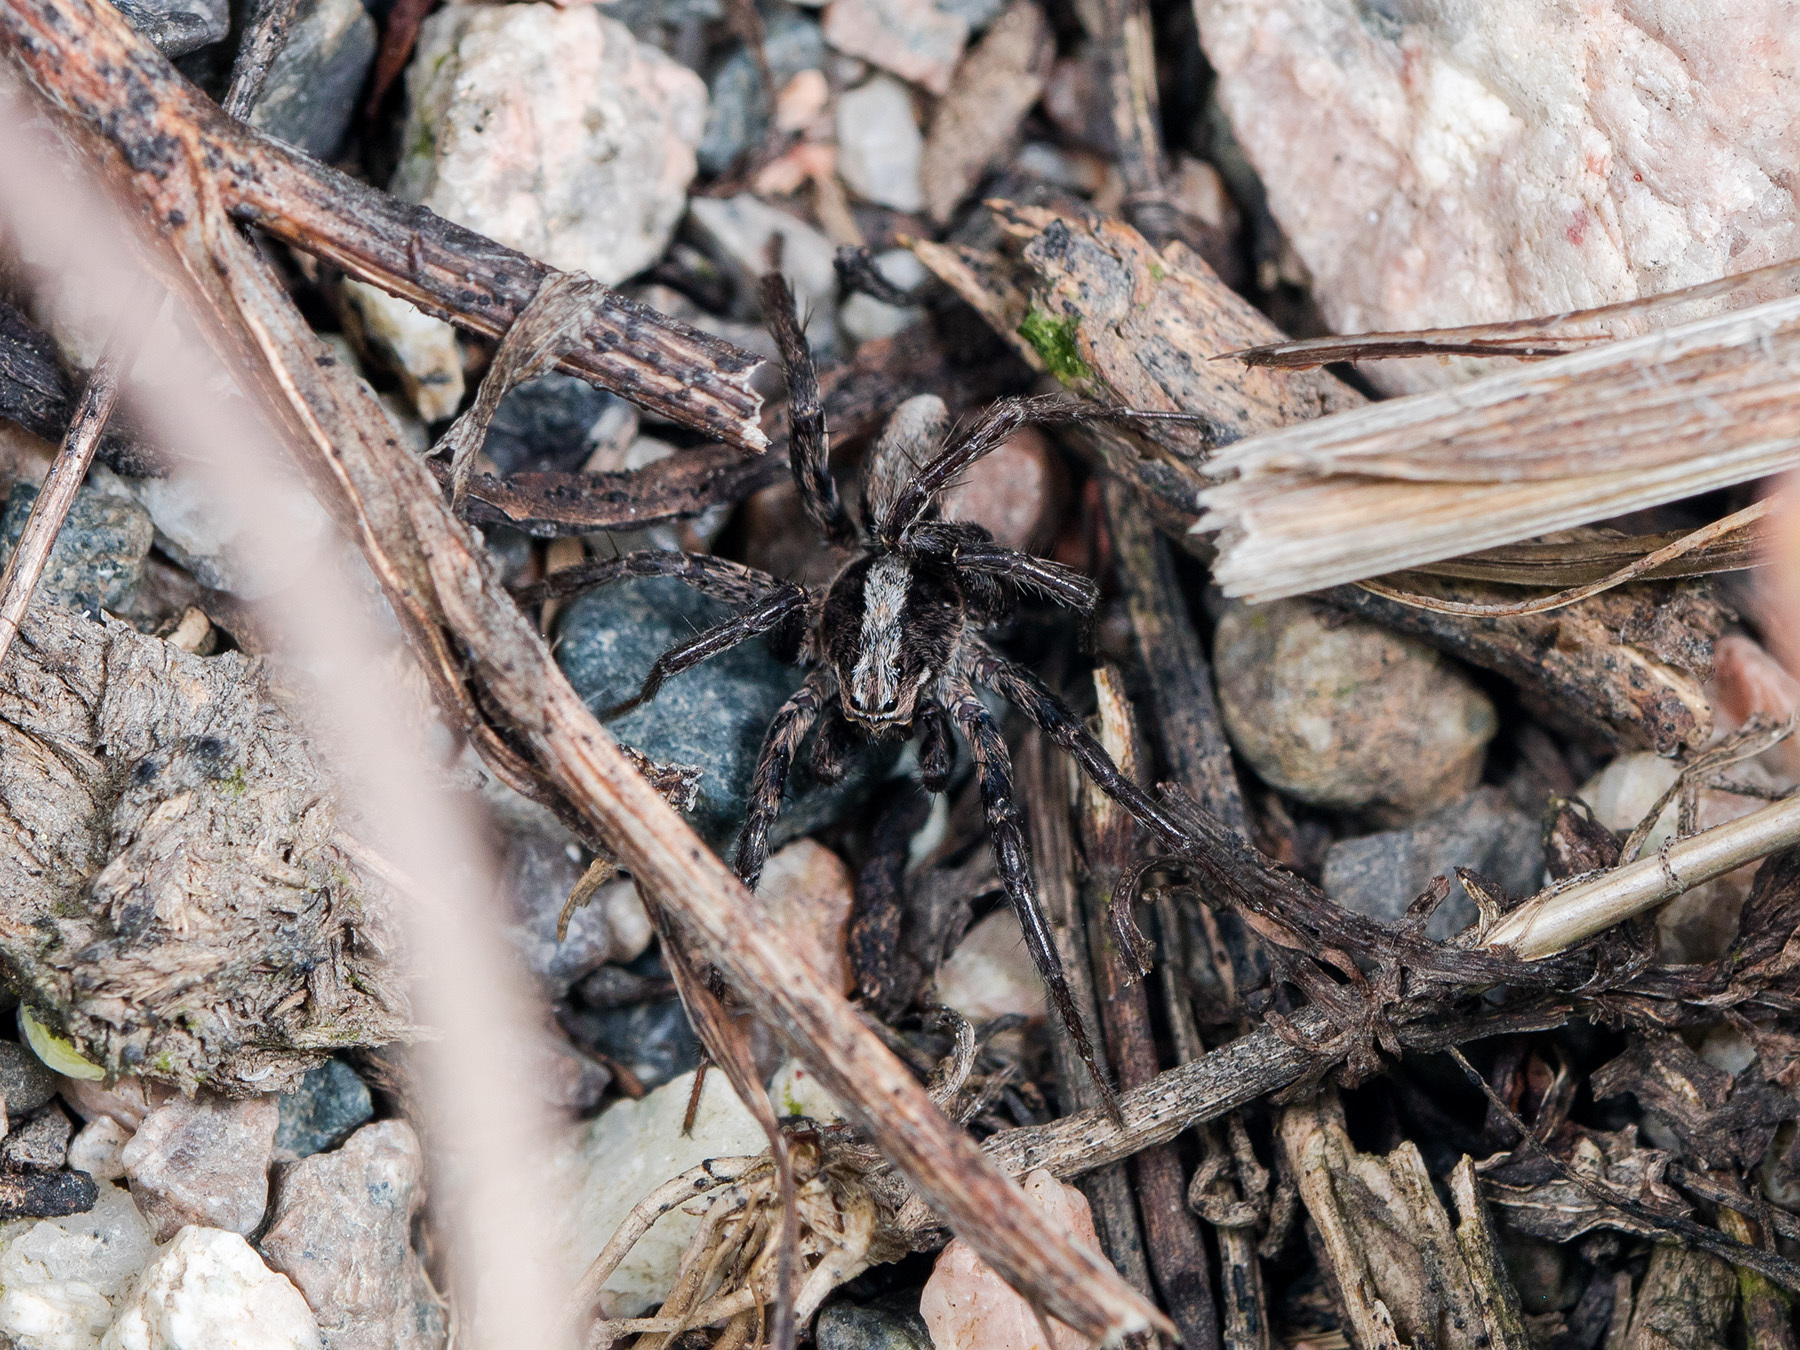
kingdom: Animalia
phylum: Arthropoda
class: Arachnida
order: Araneae
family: Lycosidae
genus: Alopecosa
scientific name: Alopecosa cursor
